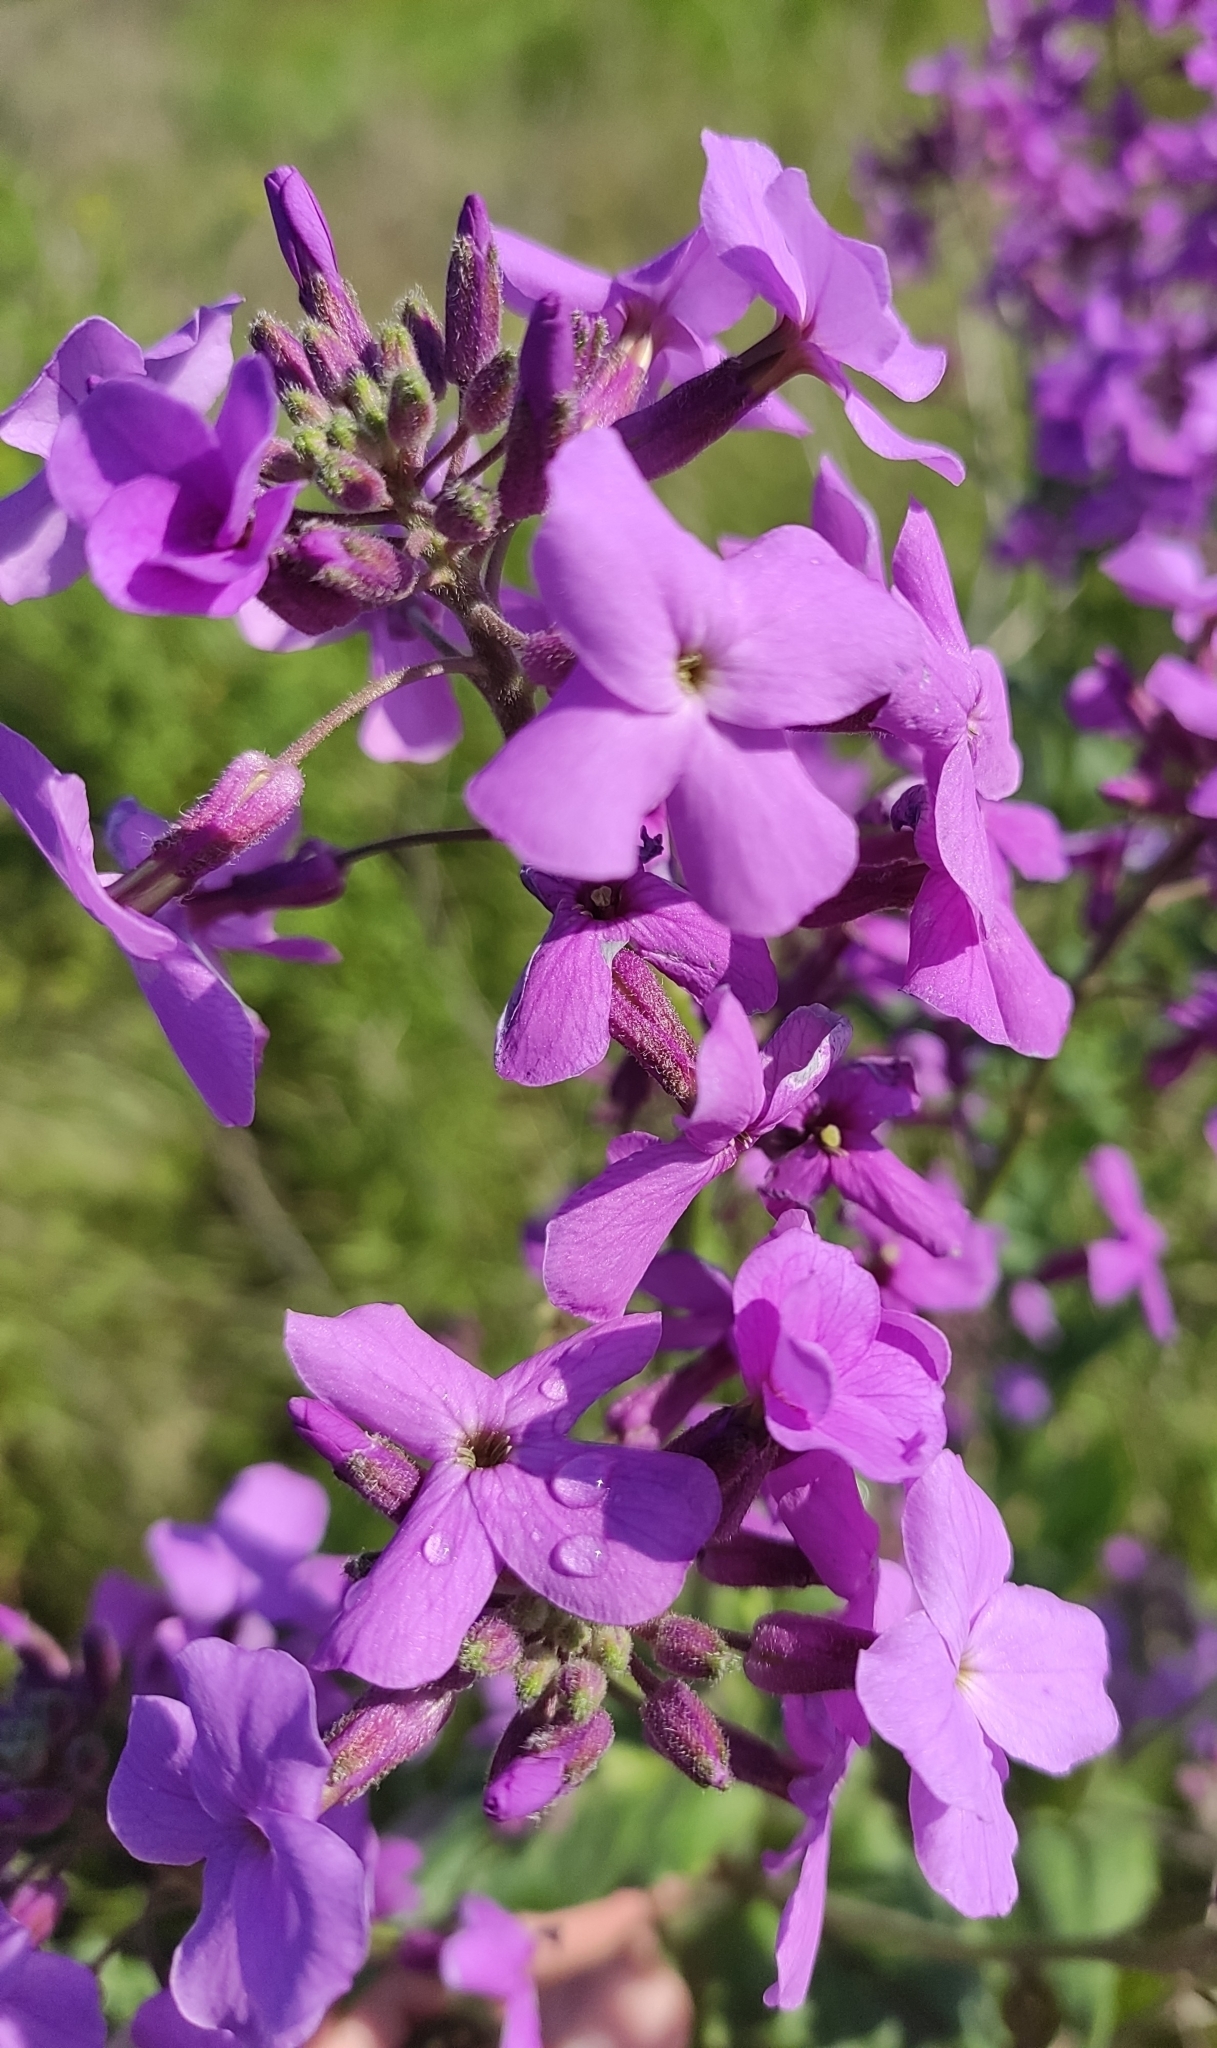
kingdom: Plantae
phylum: Tracheophyta
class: Magnoliopsida
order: Brassicales
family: Brassicaceae
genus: Hesperis
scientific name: Hesperis matronalis
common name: Dame's-violet
